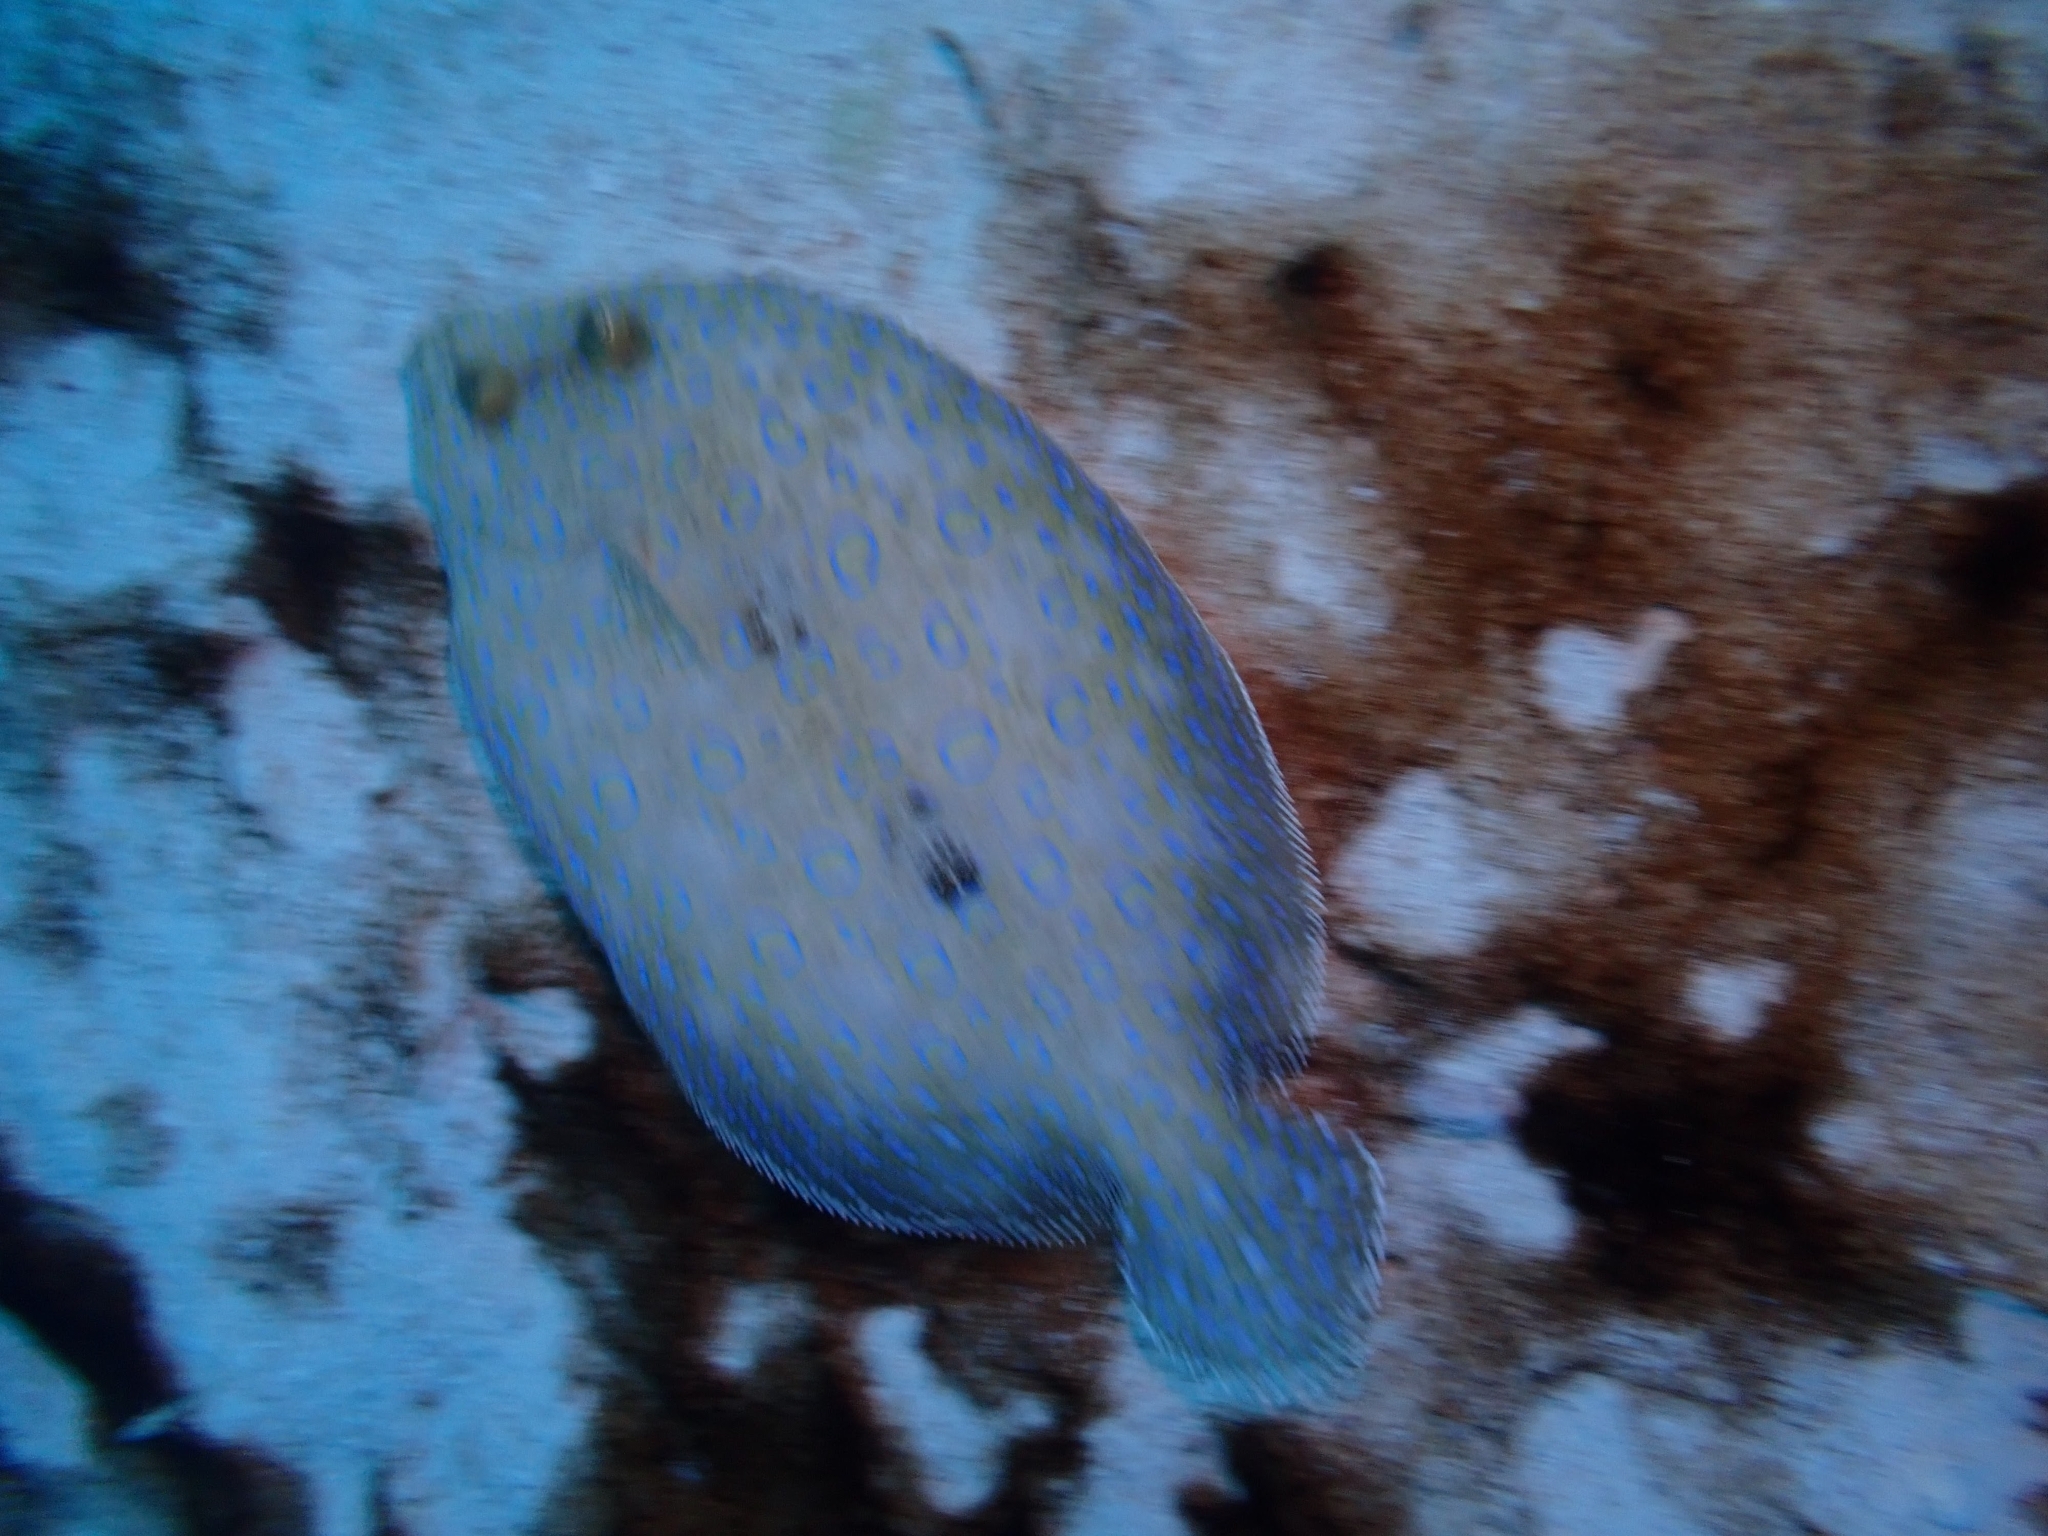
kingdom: Animalia
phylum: Chordata
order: Pleuronectiformes
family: Bothidae
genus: Bothus
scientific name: Bothus lunatus
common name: Peacock flounder
